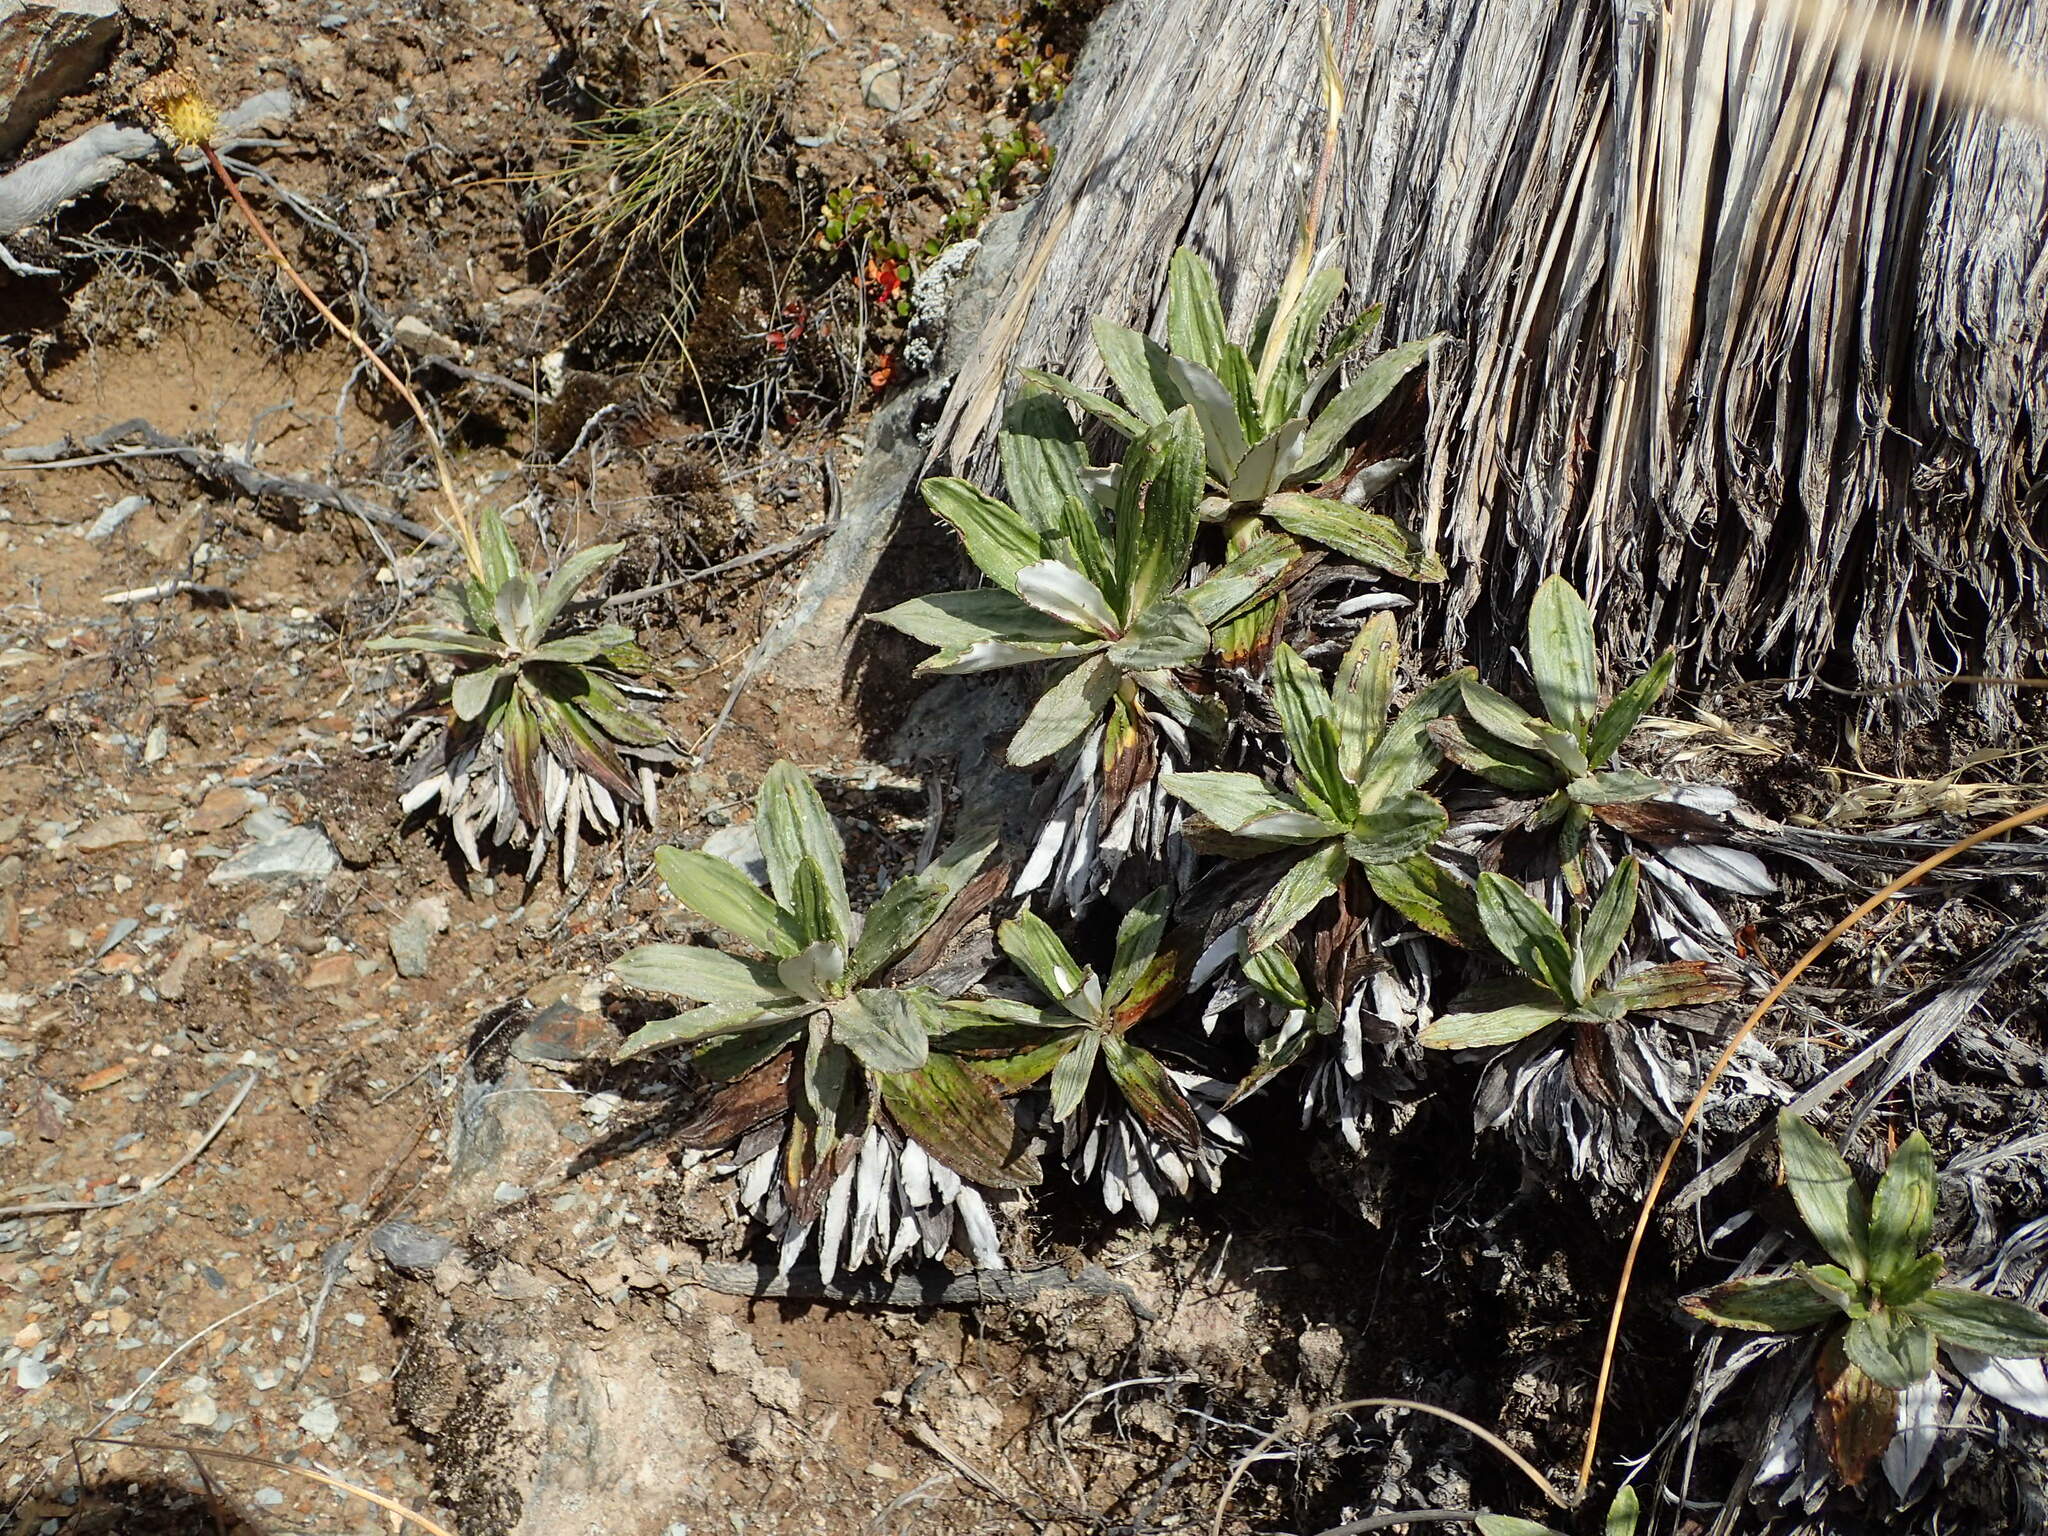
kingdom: Plantae
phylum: Tracheophyta
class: Magnoliopsida
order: Asterales
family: Asteraceae
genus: Celmisia
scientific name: Celmisia densiflora
